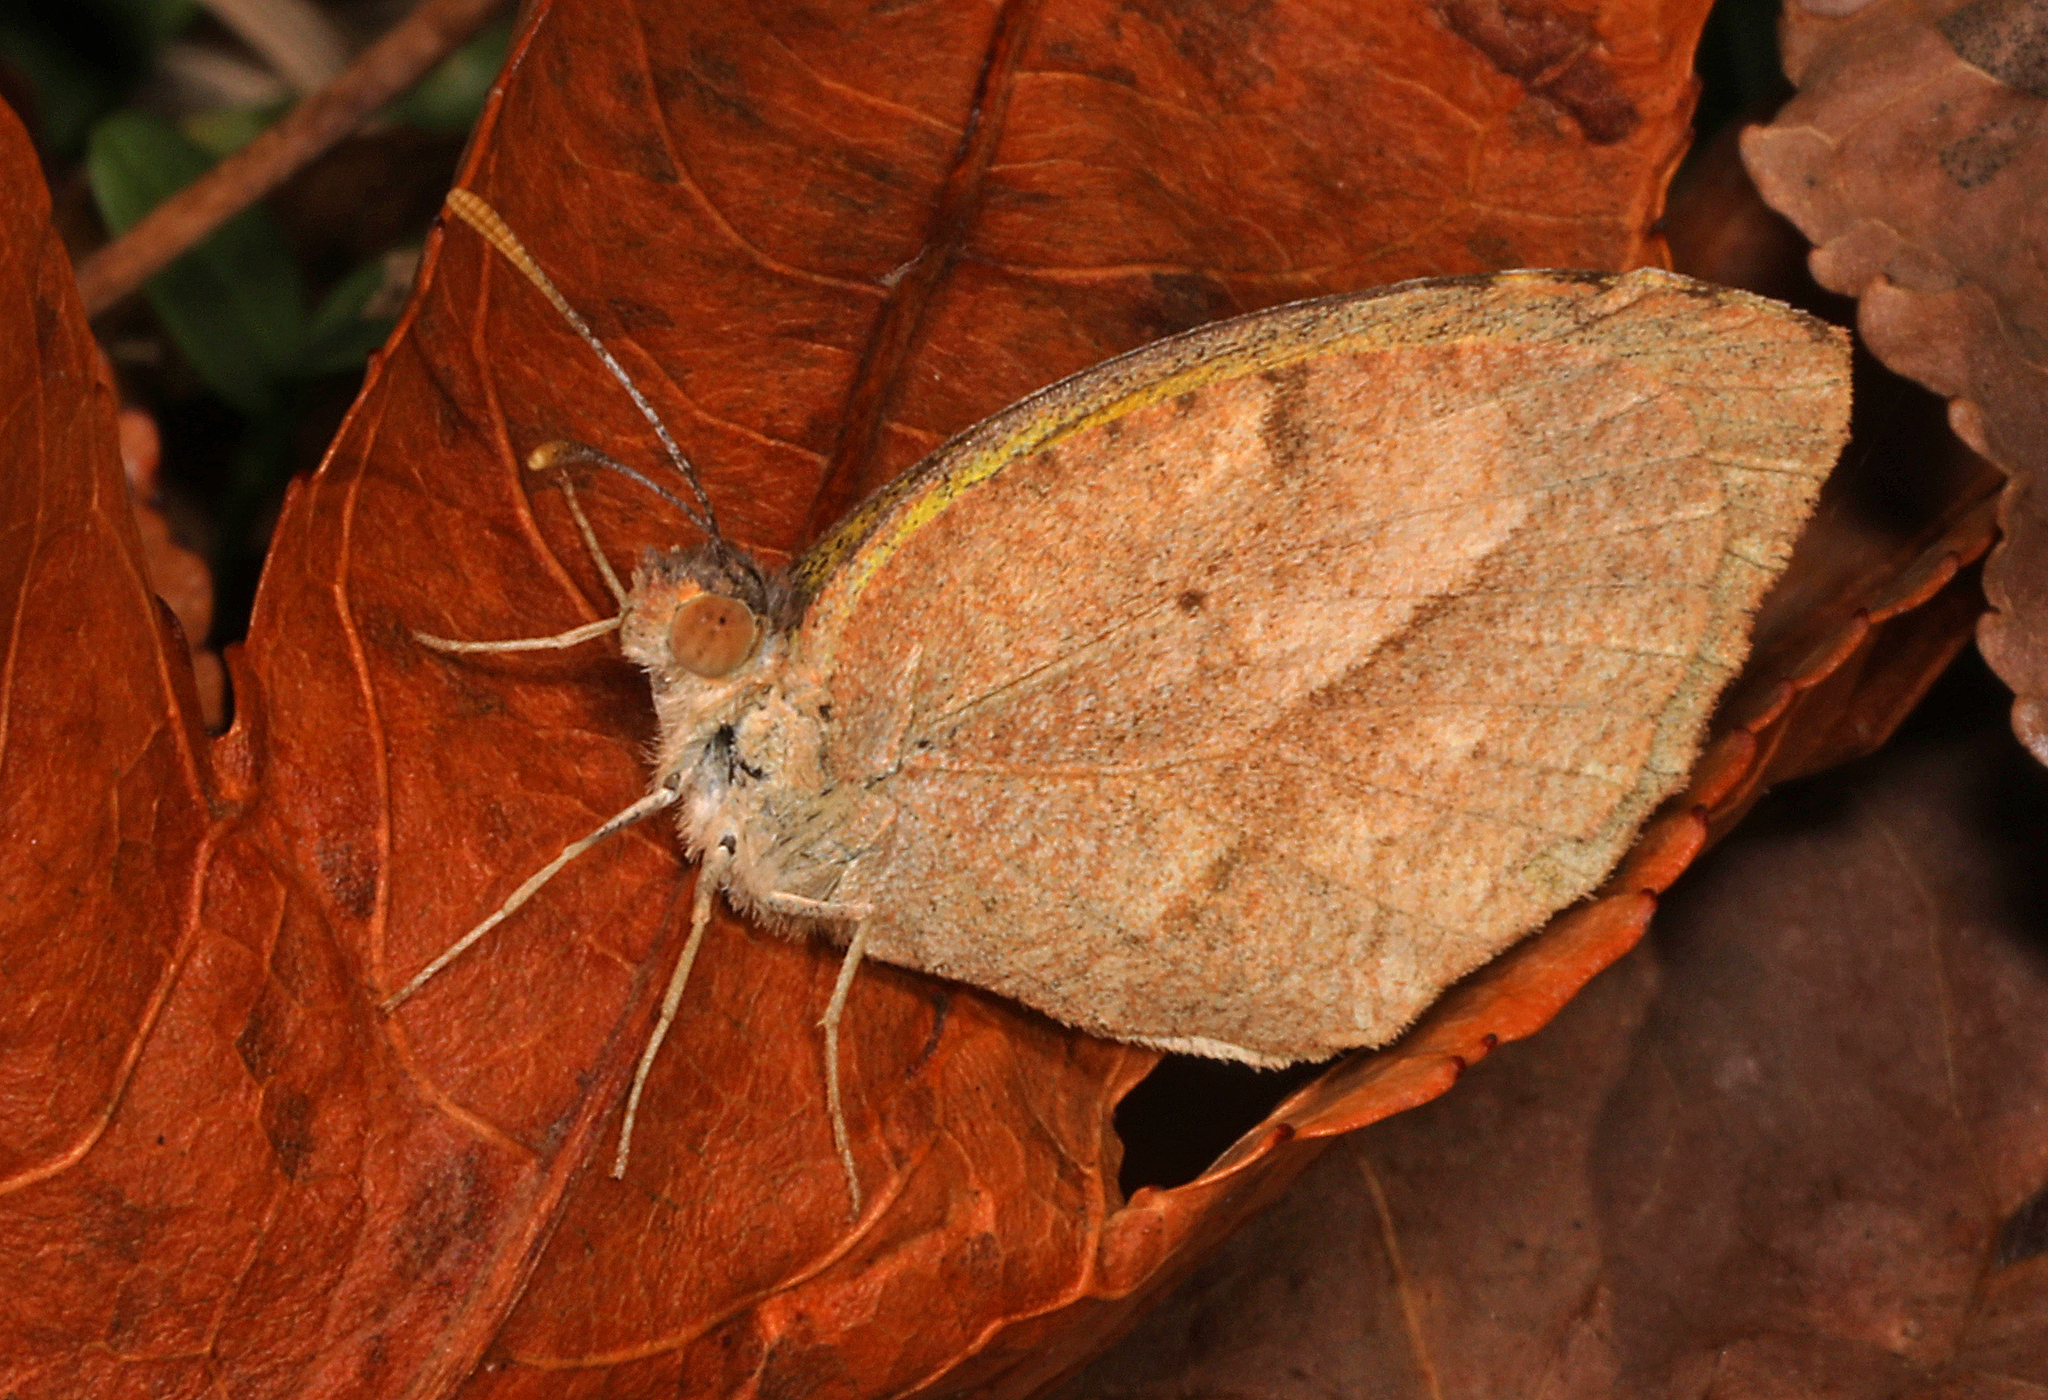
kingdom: Animalia
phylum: Arthropoda
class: Insecta
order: Lepidoptera
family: Pieridae
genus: Abaeis
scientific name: Abaeis nicippe
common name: Sleepy orange
